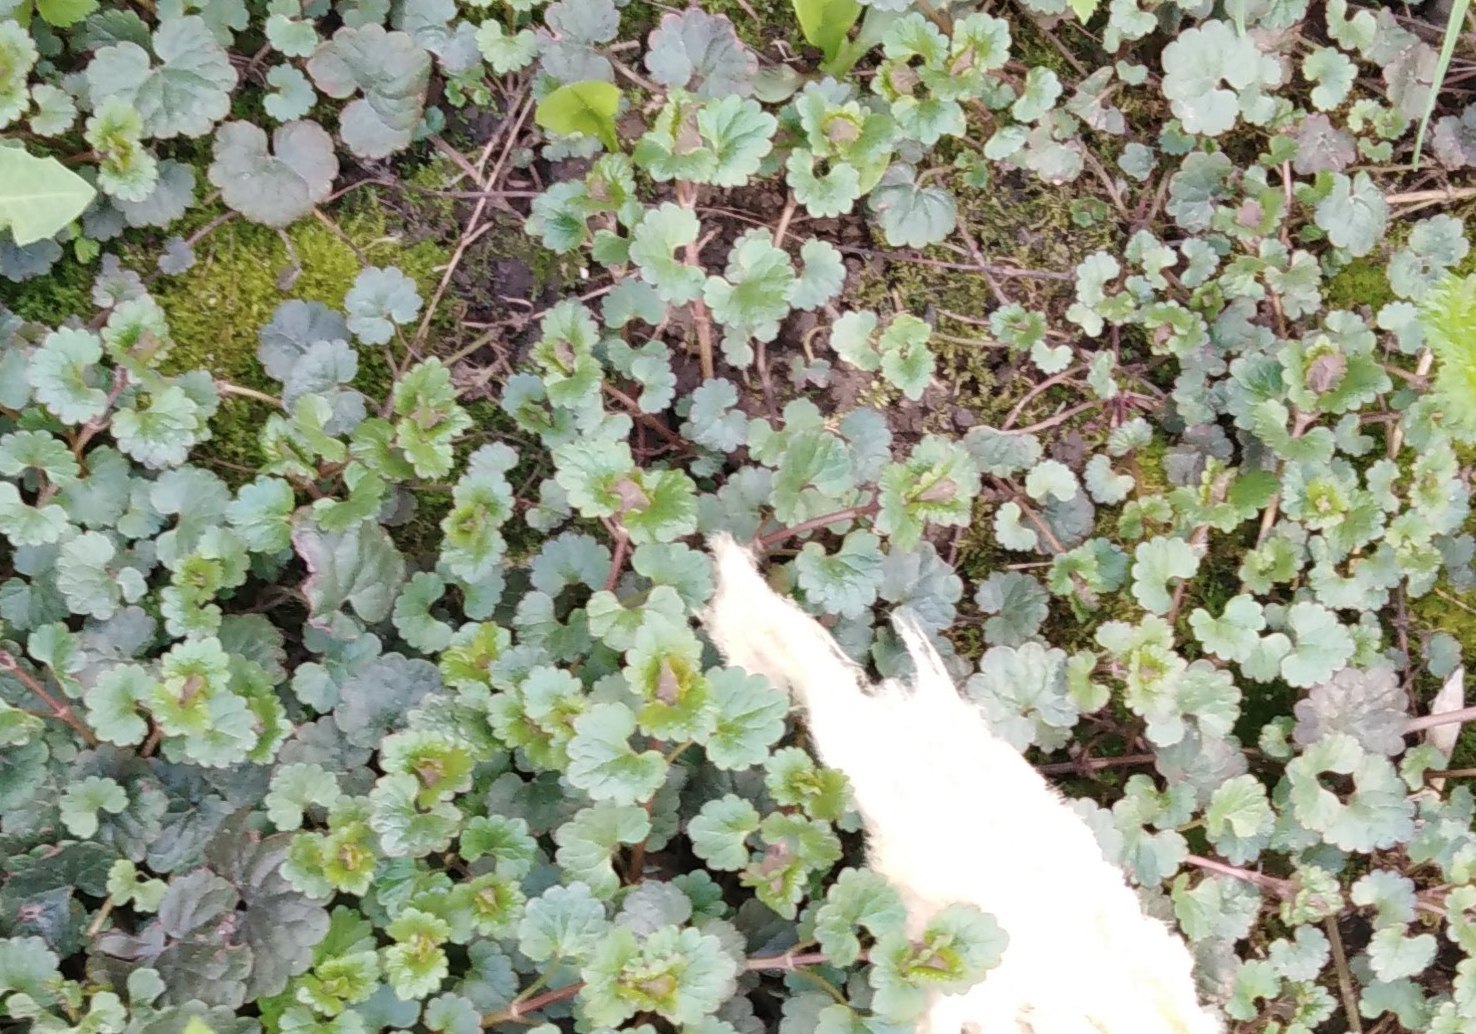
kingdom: Plantae
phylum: Tracheophyta
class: Magnoliopsida
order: Lamiales
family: Lamiaceae
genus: Glechoma
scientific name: Glechoma hederacea
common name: Ground ivy
